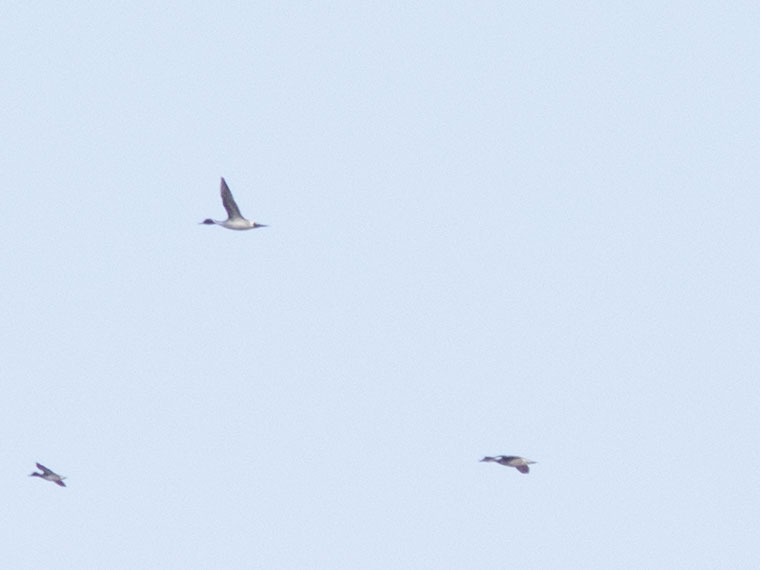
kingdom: Animalia
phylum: Chordata
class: Aves
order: Anseriformes
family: Anatidae
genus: Anas
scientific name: Anas acuta
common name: Northern pintail
